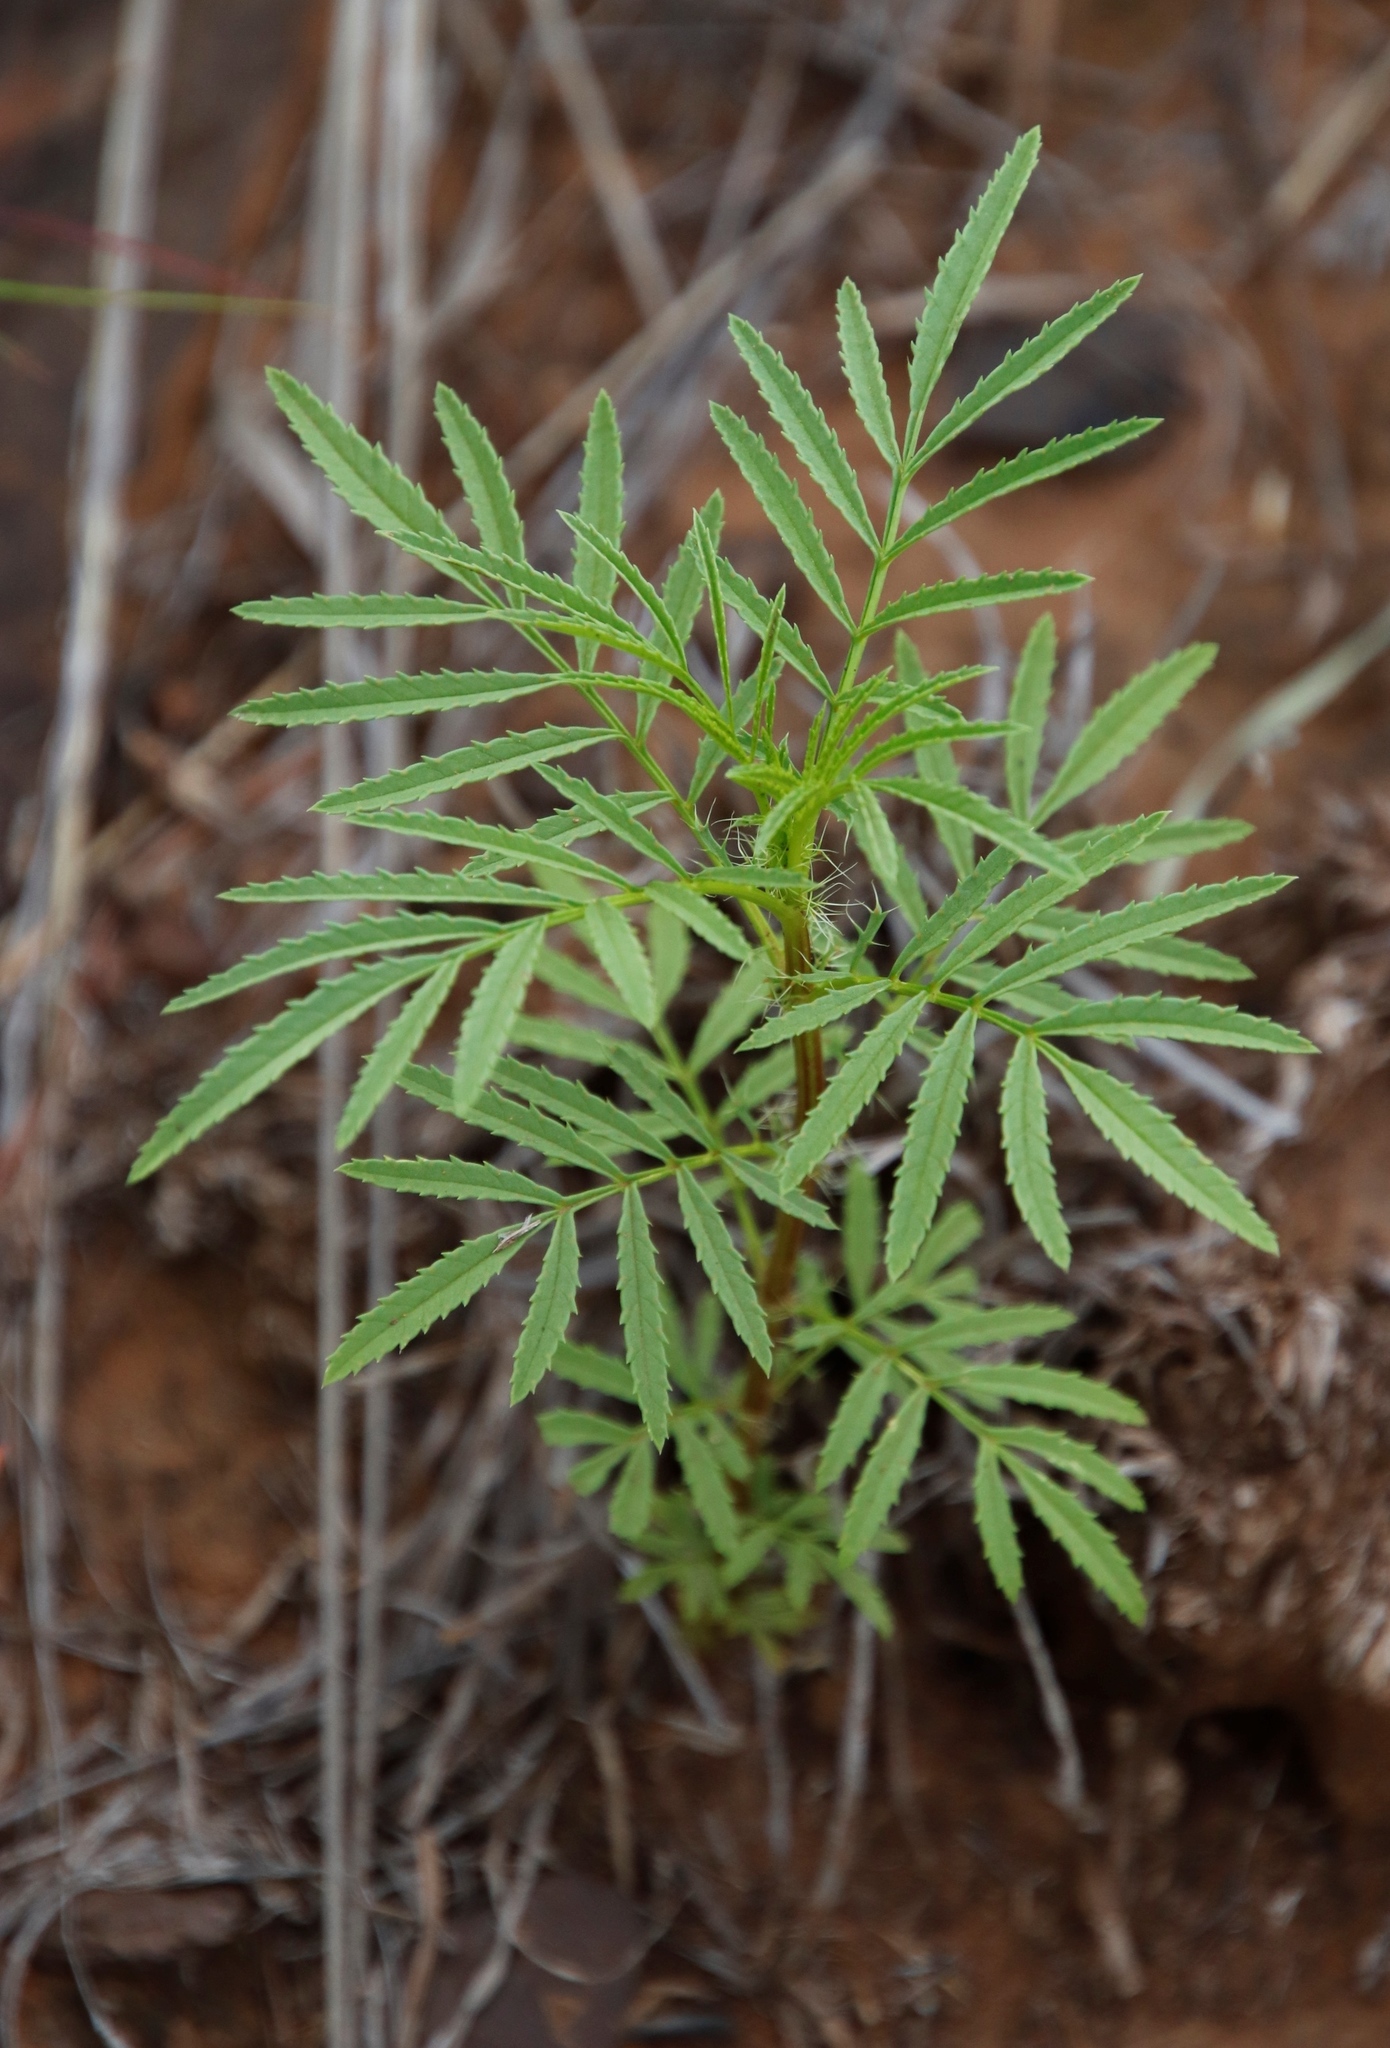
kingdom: Plantae
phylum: Tracheophyta
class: Magnoliopsida
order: Asterales
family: Asteraceae
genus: Tagetes
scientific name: Tagetes minuta
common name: Muster john henry
